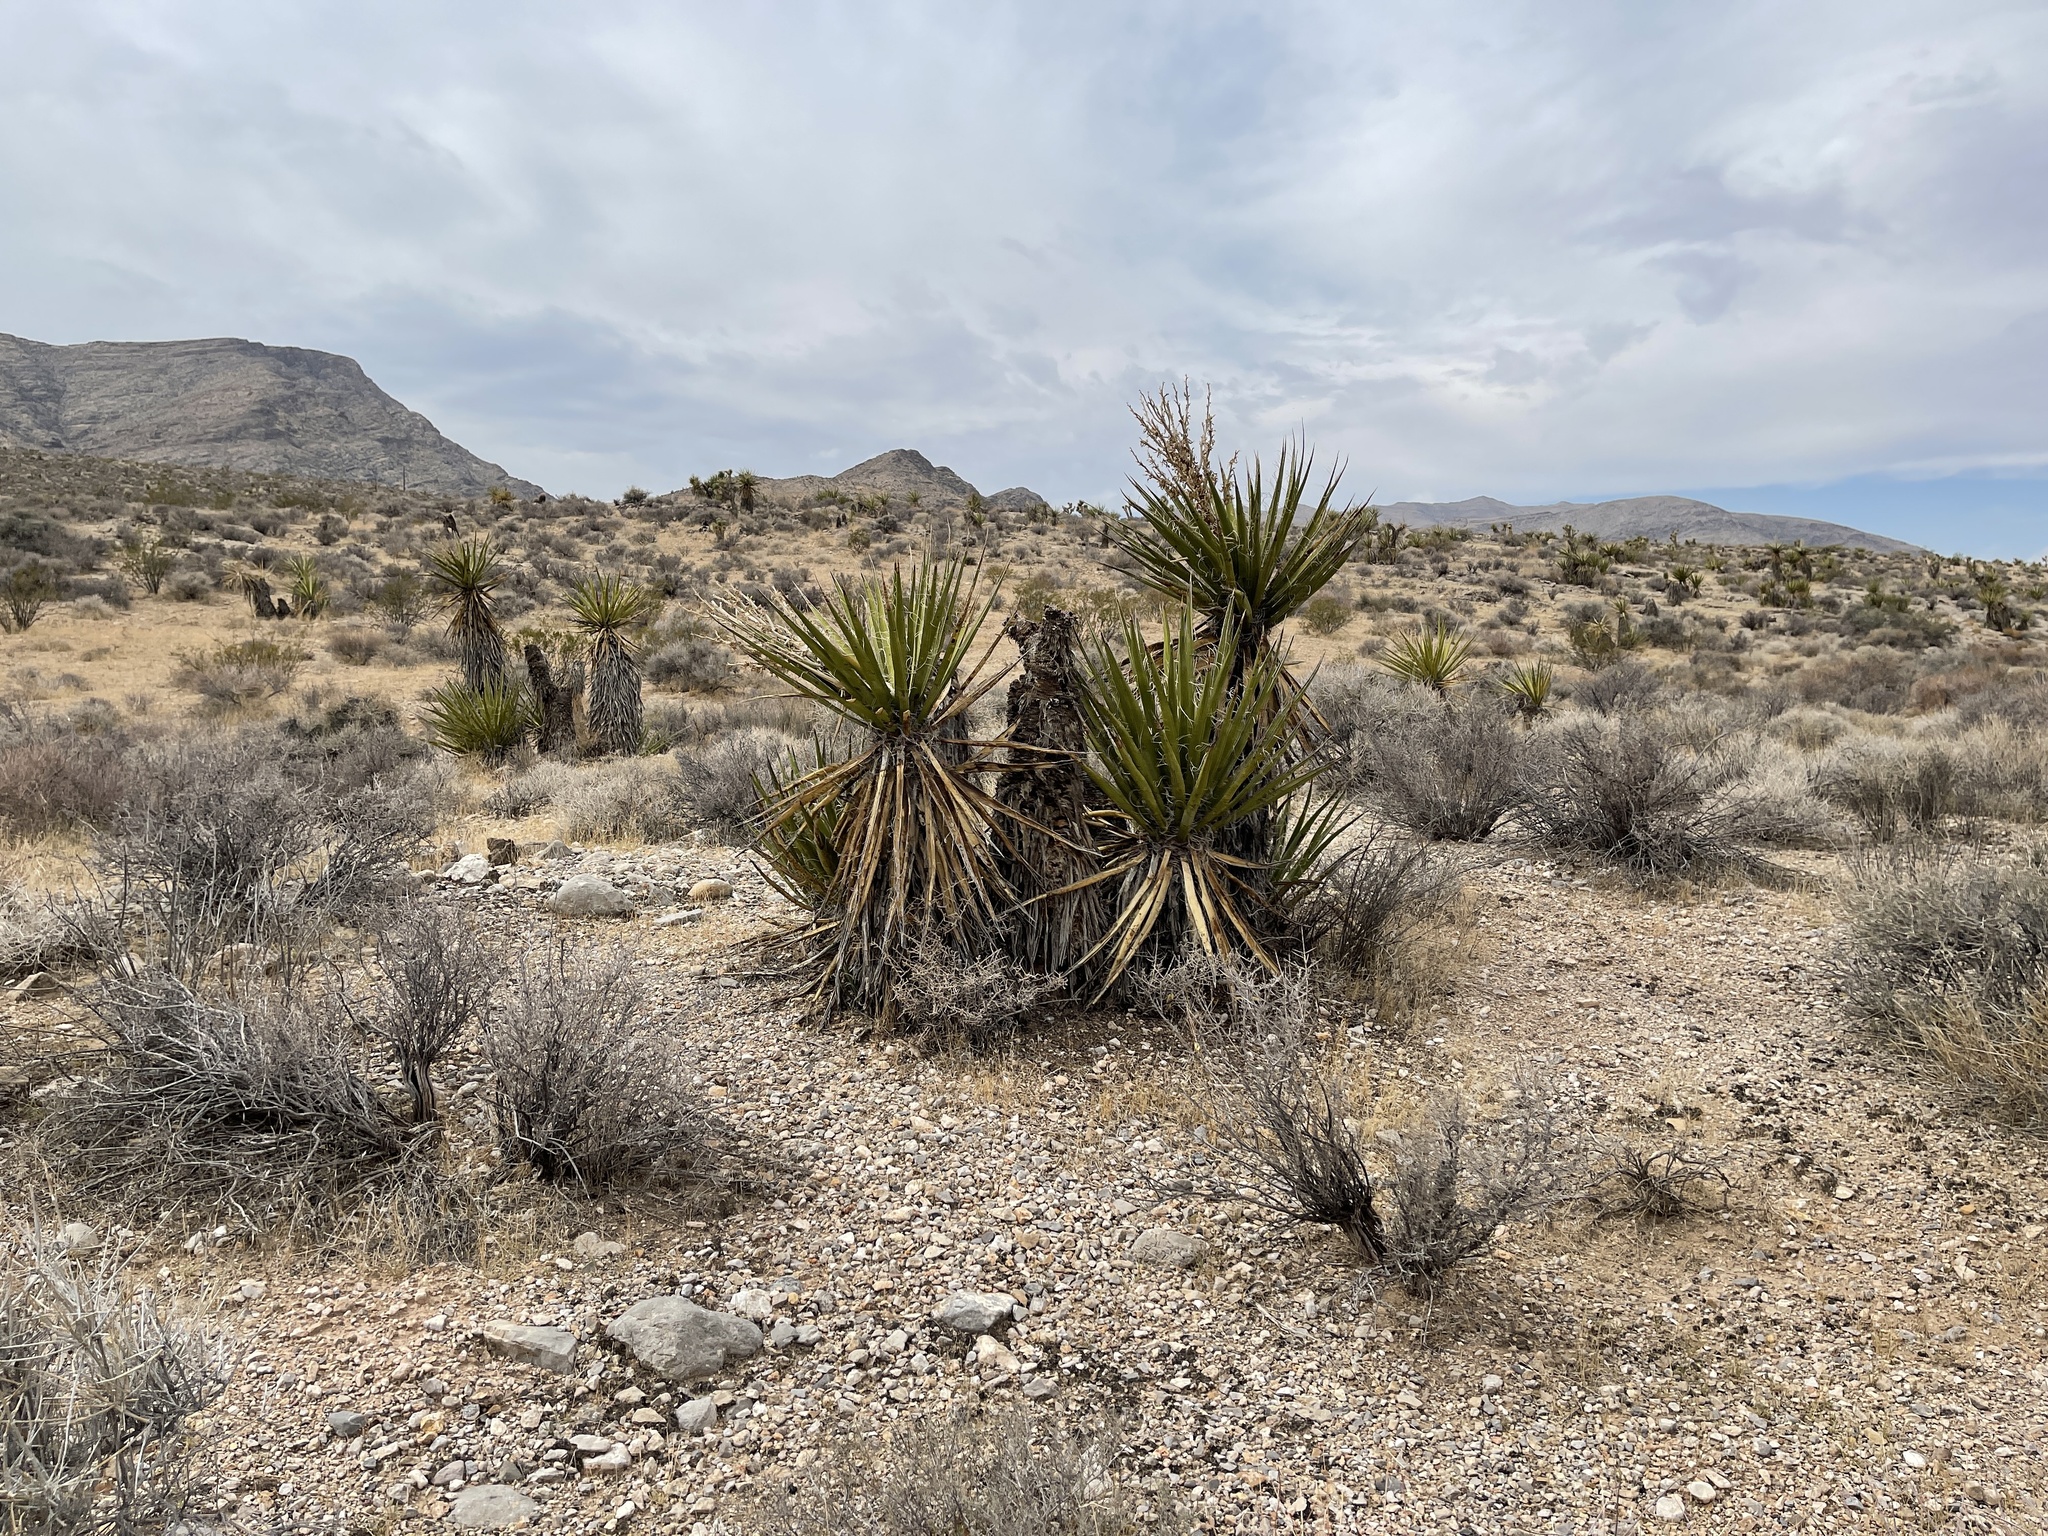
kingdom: Plantae
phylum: Tracheophyta
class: Liliopsida
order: Asparagales
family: Asparagaceae
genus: Yucca
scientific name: Yucca schidigera
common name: Mojave yucca
